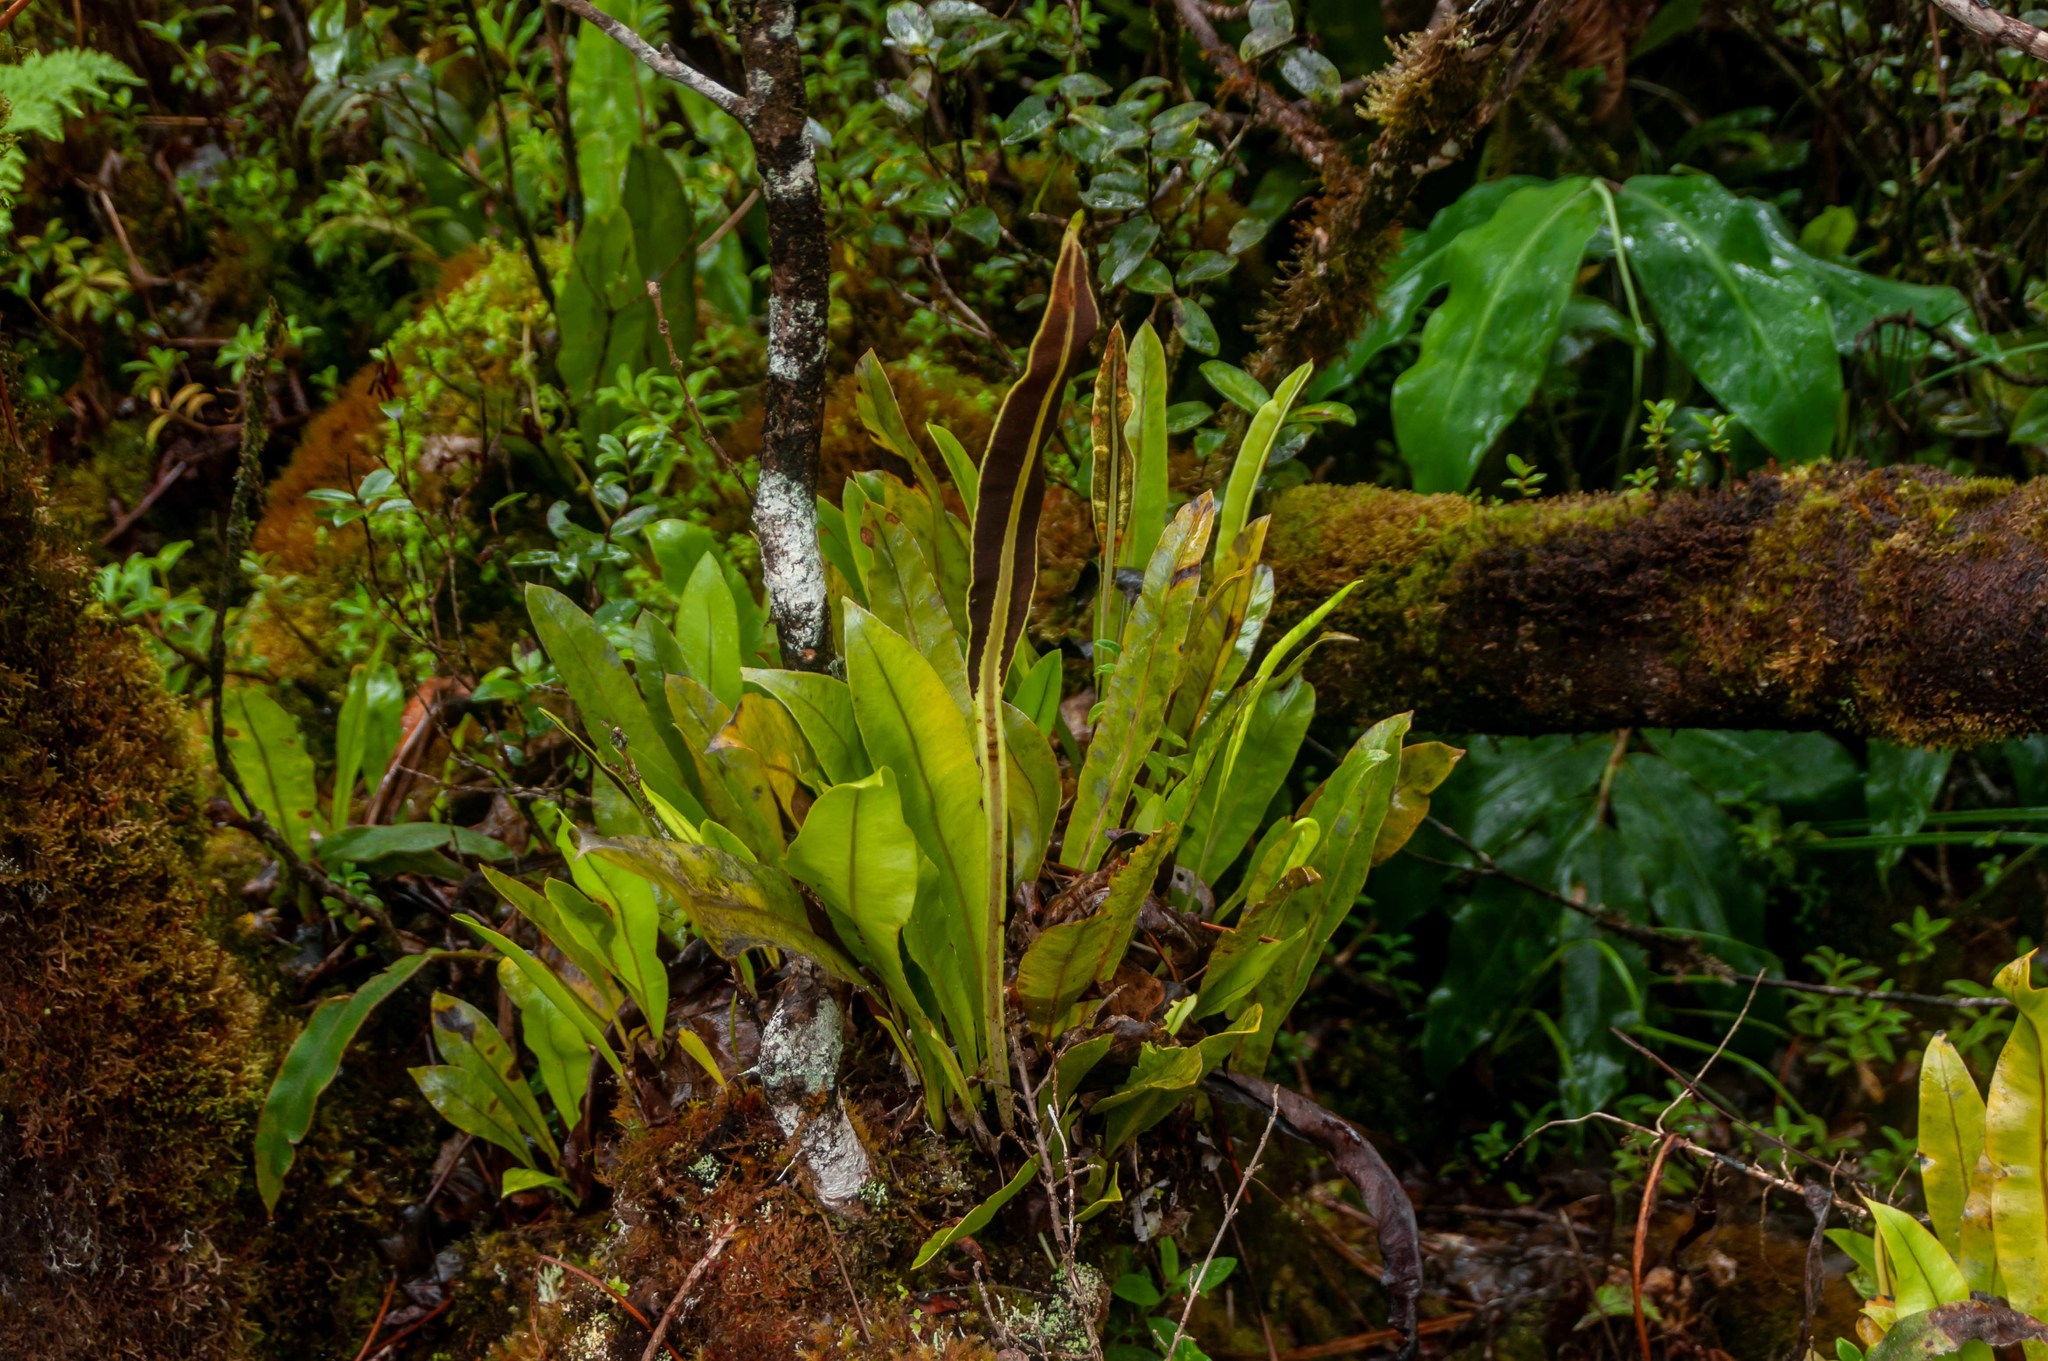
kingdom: Plantae
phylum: Tracheophyta
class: Polypodiopsida
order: Polypodiales
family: Dryopteridaceae
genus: Elaphoglossum
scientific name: Elaphoglossum crassicaule
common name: Maui's paddle
